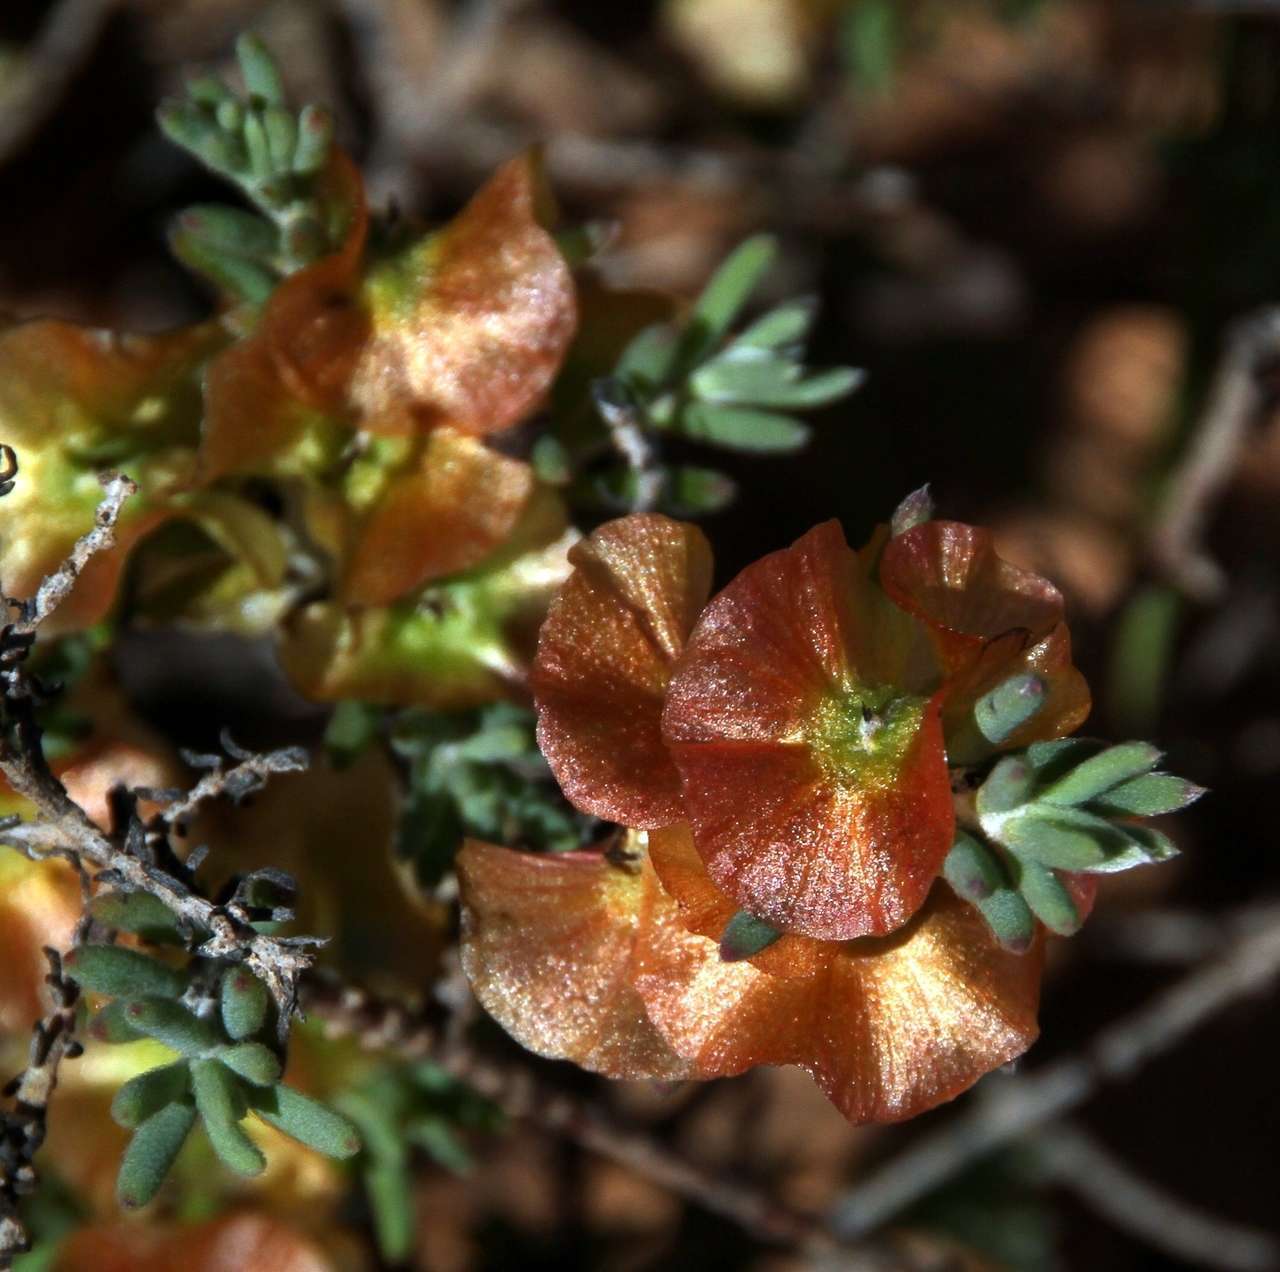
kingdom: Plantae
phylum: Tracheophyta
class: Magnoliopsida
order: Caryophyllales
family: Amaranthaceae
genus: Maireana
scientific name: Maireana turbinata
